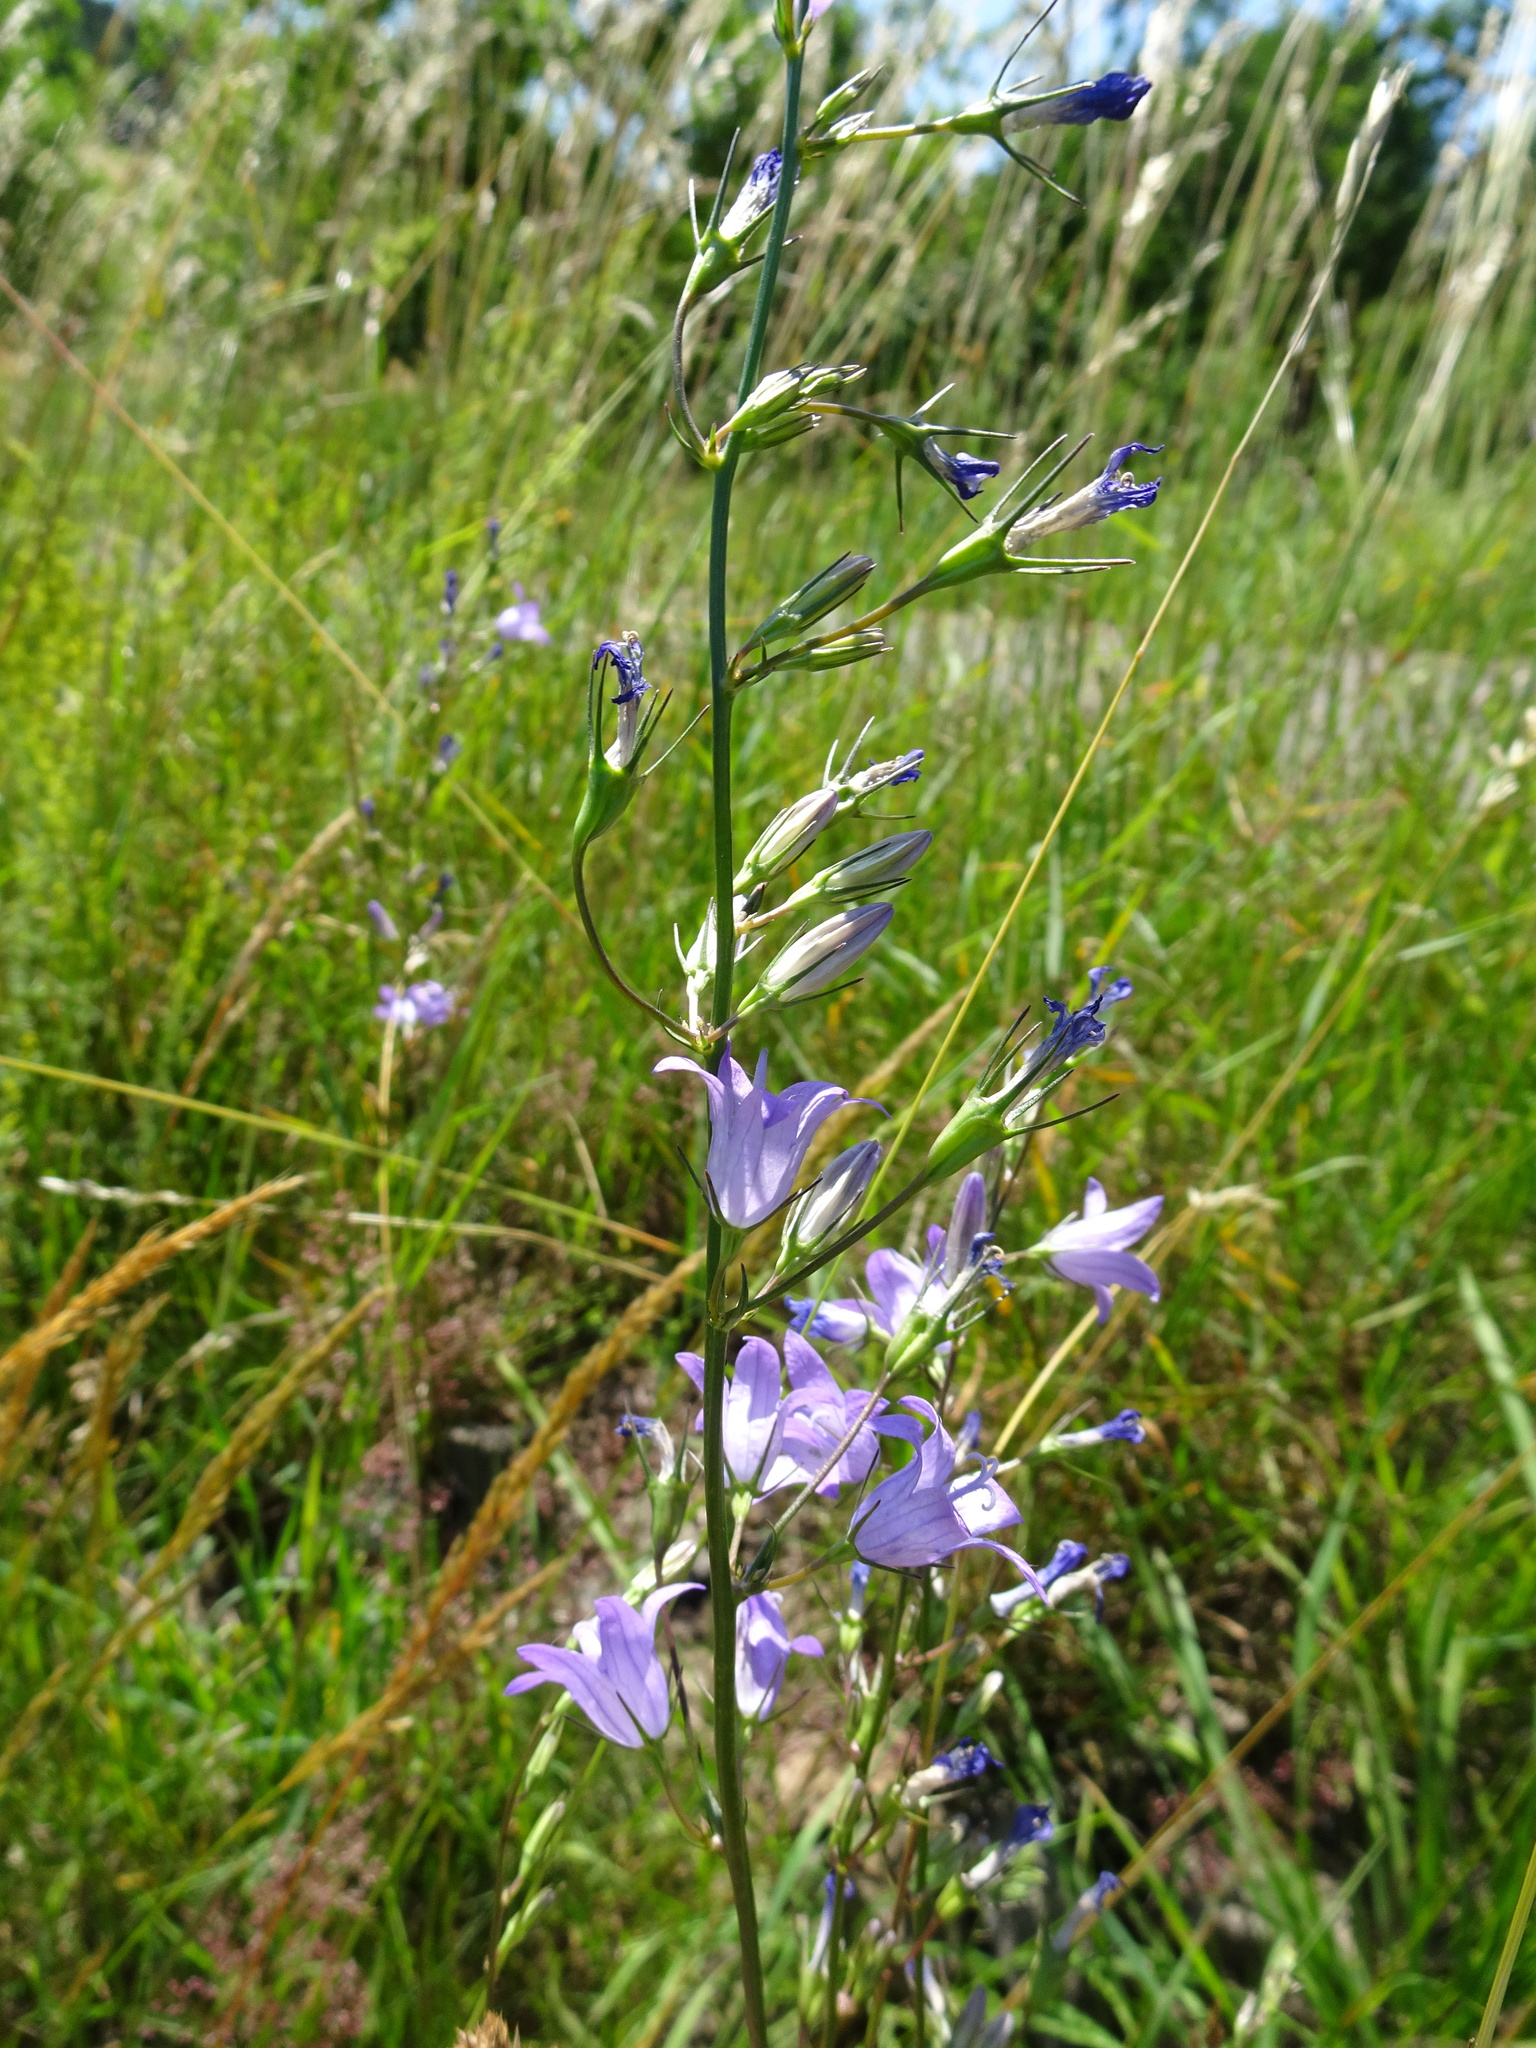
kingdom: Plantae
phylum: Tracheophyta
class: Magnoliopsida
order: Asterales
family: Campanulaceae
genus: Campanula
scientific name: Campanula rapunculus
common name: Rampion bellflower
